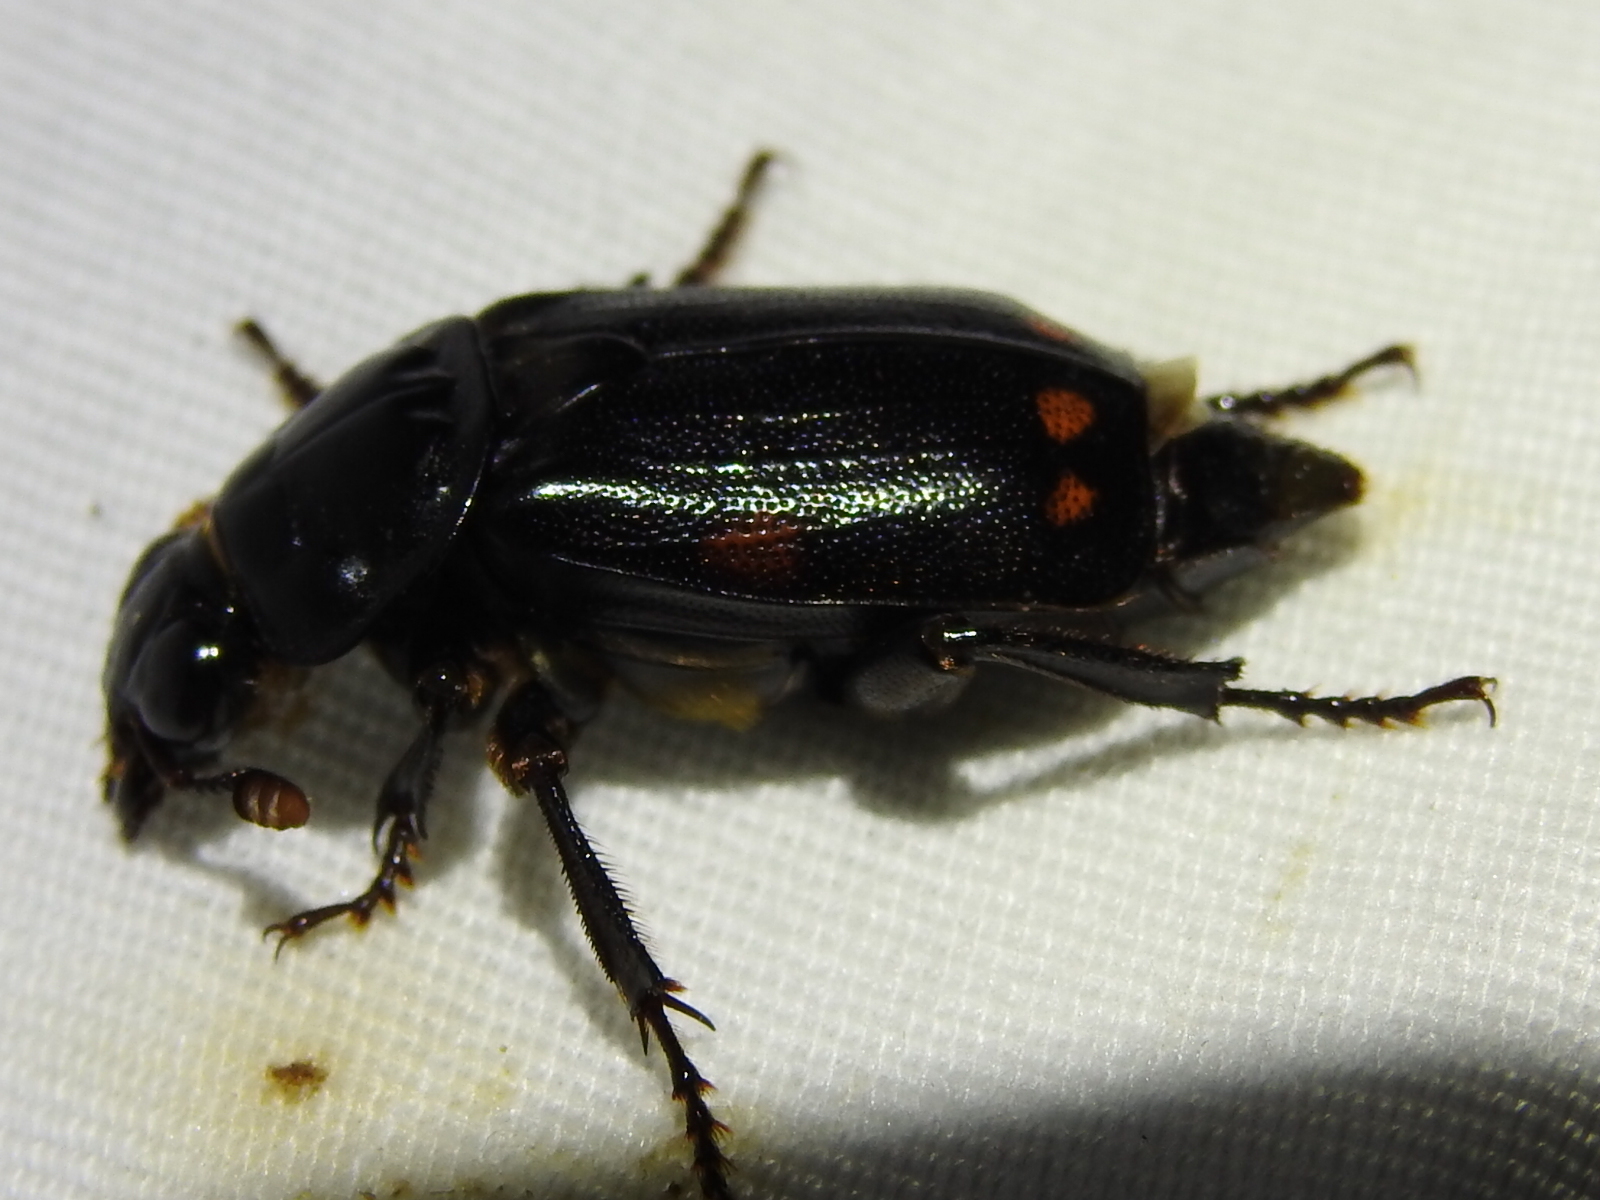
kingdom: Animalia
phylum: Arthropoda
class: Insecta
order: Coleoptera
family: Staphylinidae
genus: Nicrophorus
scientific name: Nicrophorus pustulatus
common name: Pustulated carrion beetle
